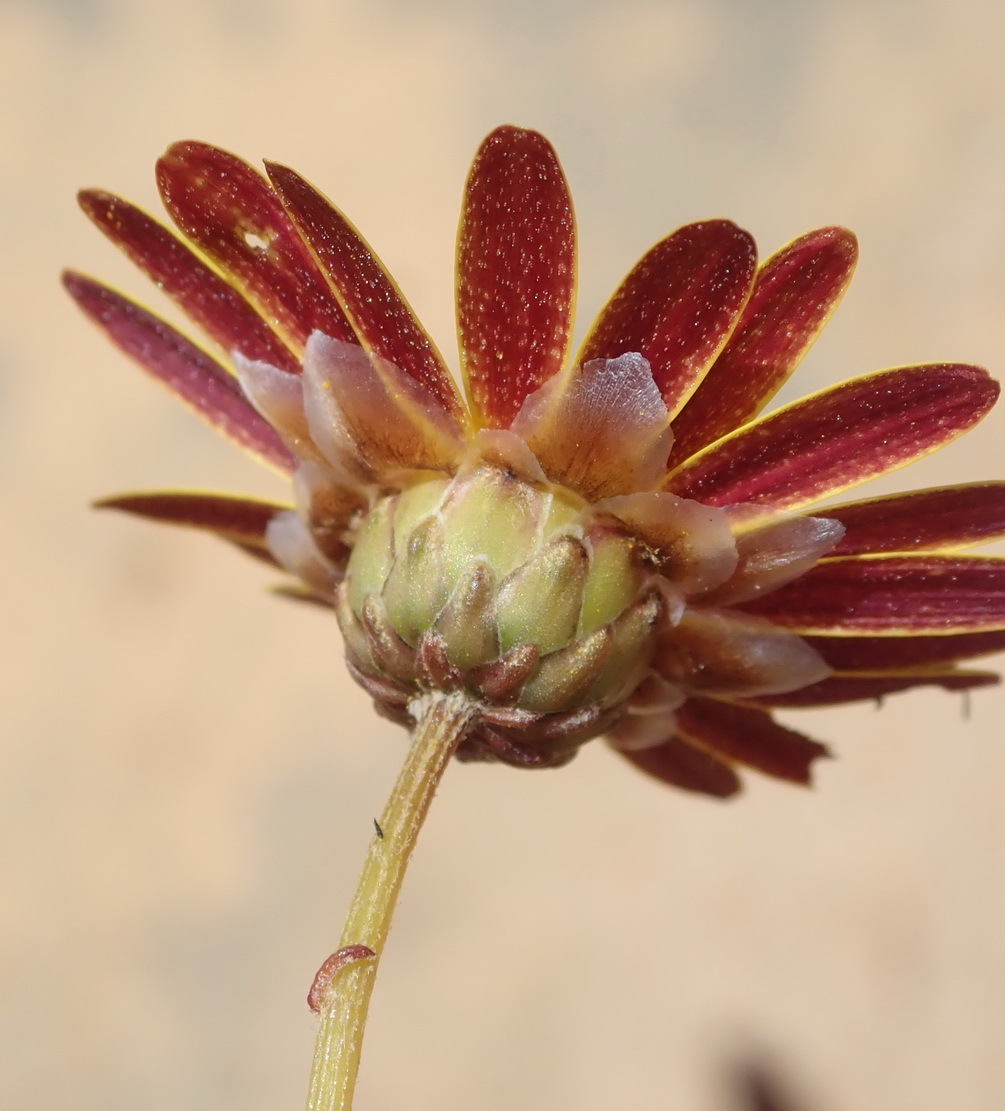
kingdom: Plantae
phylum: Tracheophyta
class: Magnoliopsida
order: Asterales
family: Asteraceae
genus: Ursinia
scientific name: Ursinia paleacea
